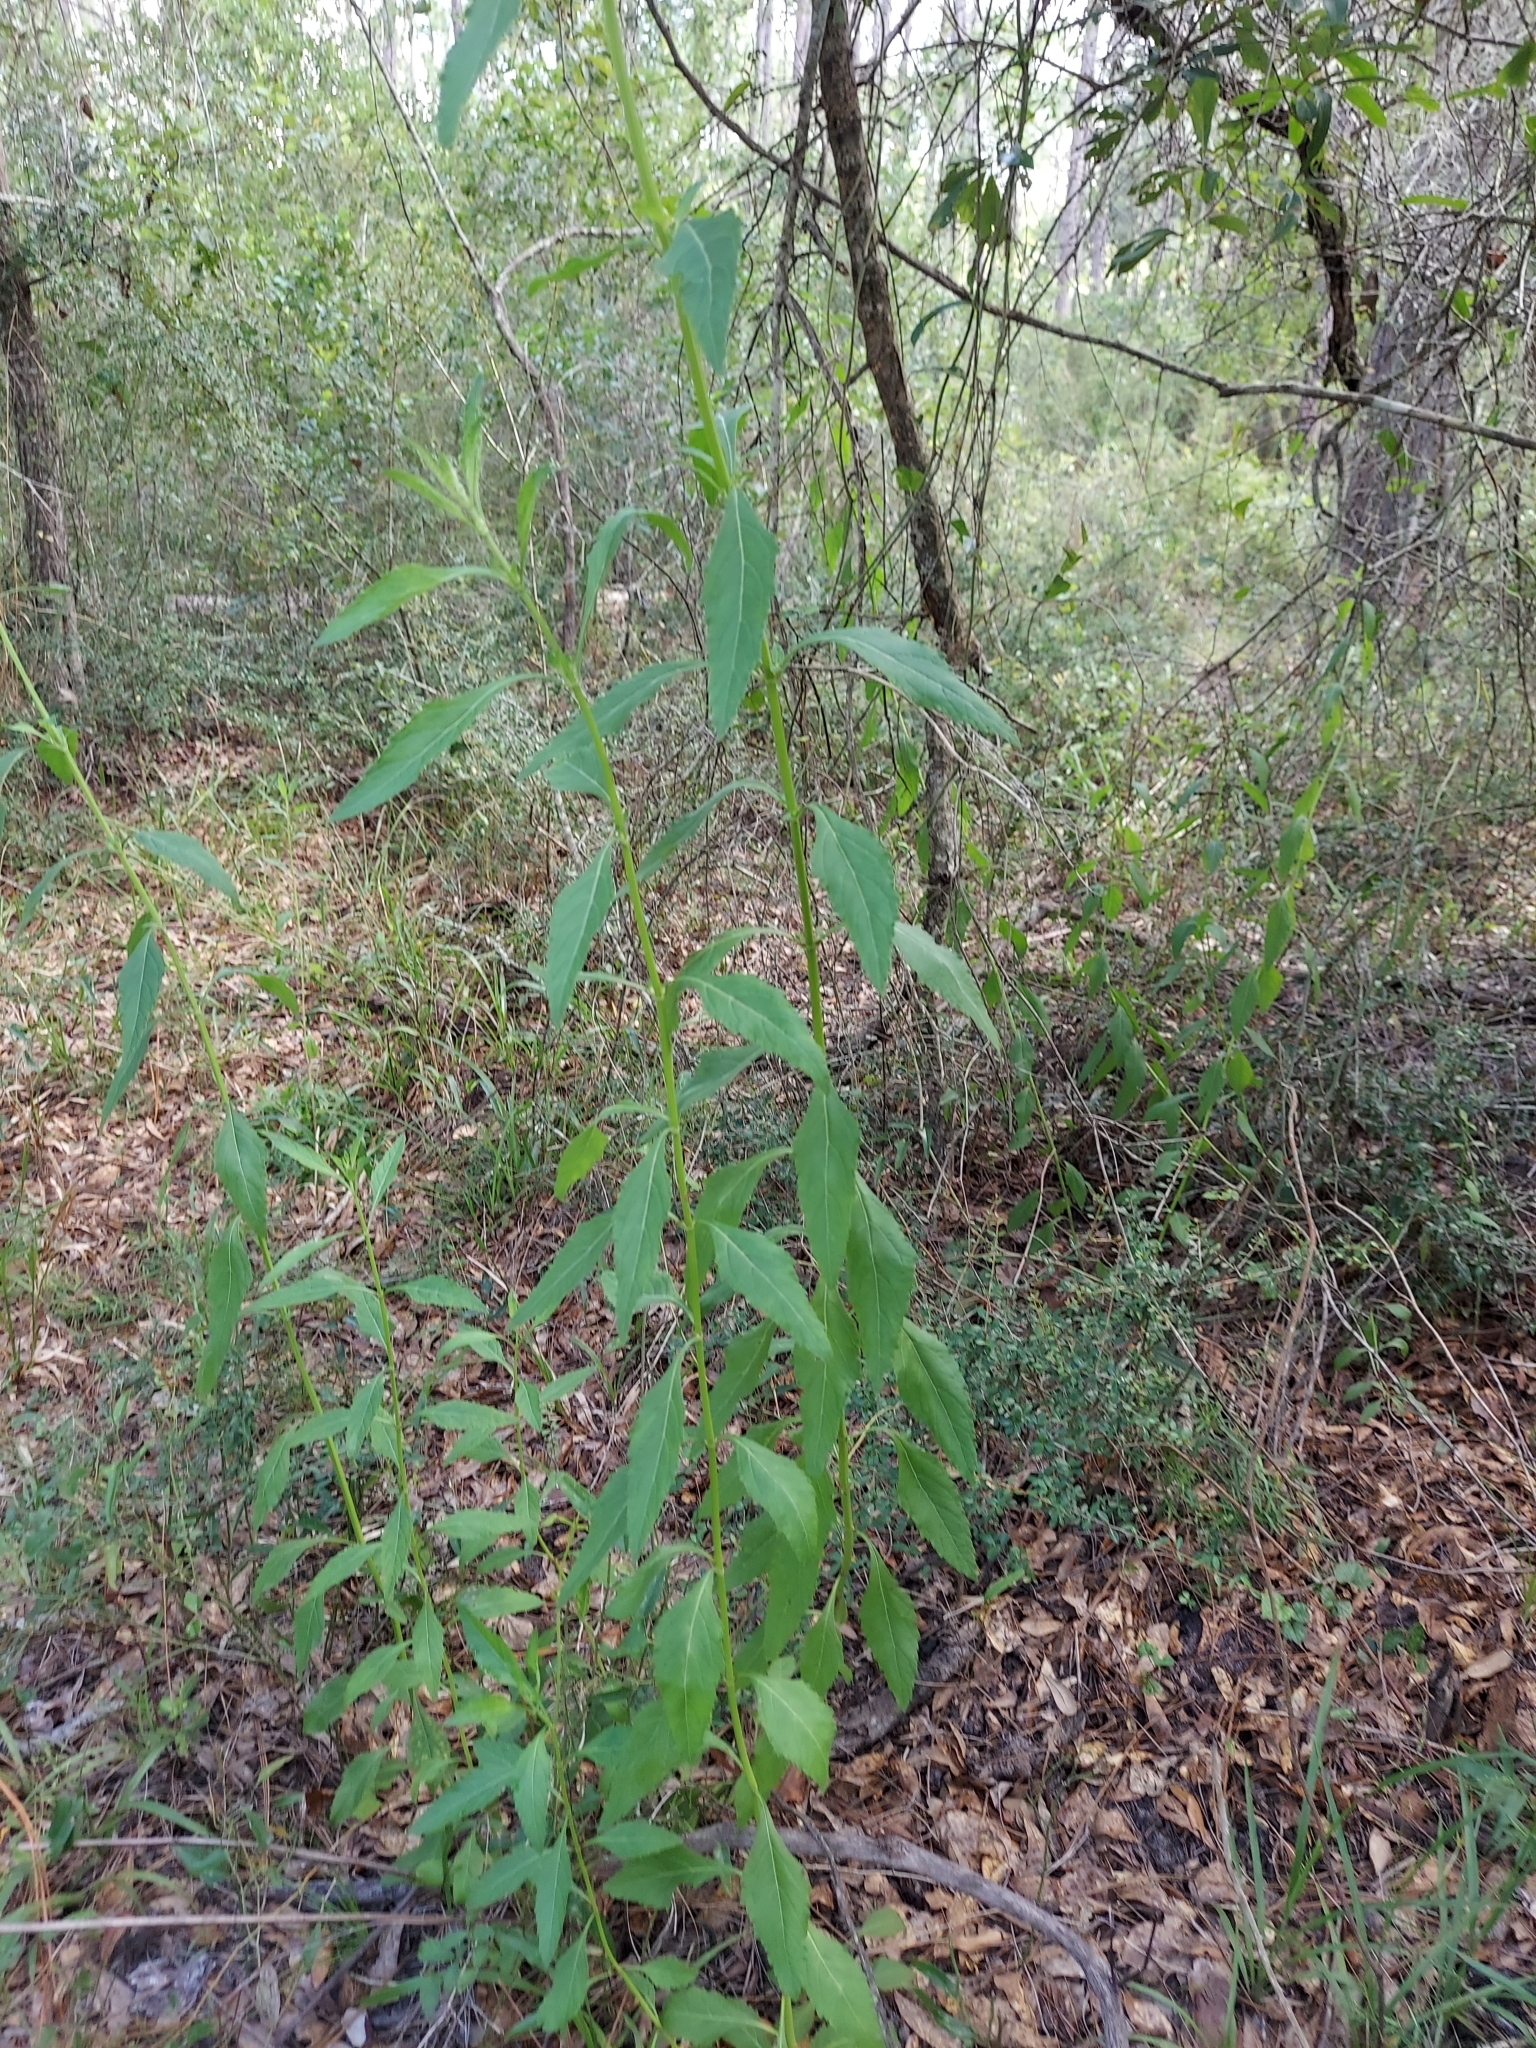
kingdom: Plantae
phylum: Tracheophyta
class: Magnoliopsida
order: Lamiales
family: Lamiaceae
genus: Hyptis
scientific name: Hyptis alata
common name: Cluster bush-mint
